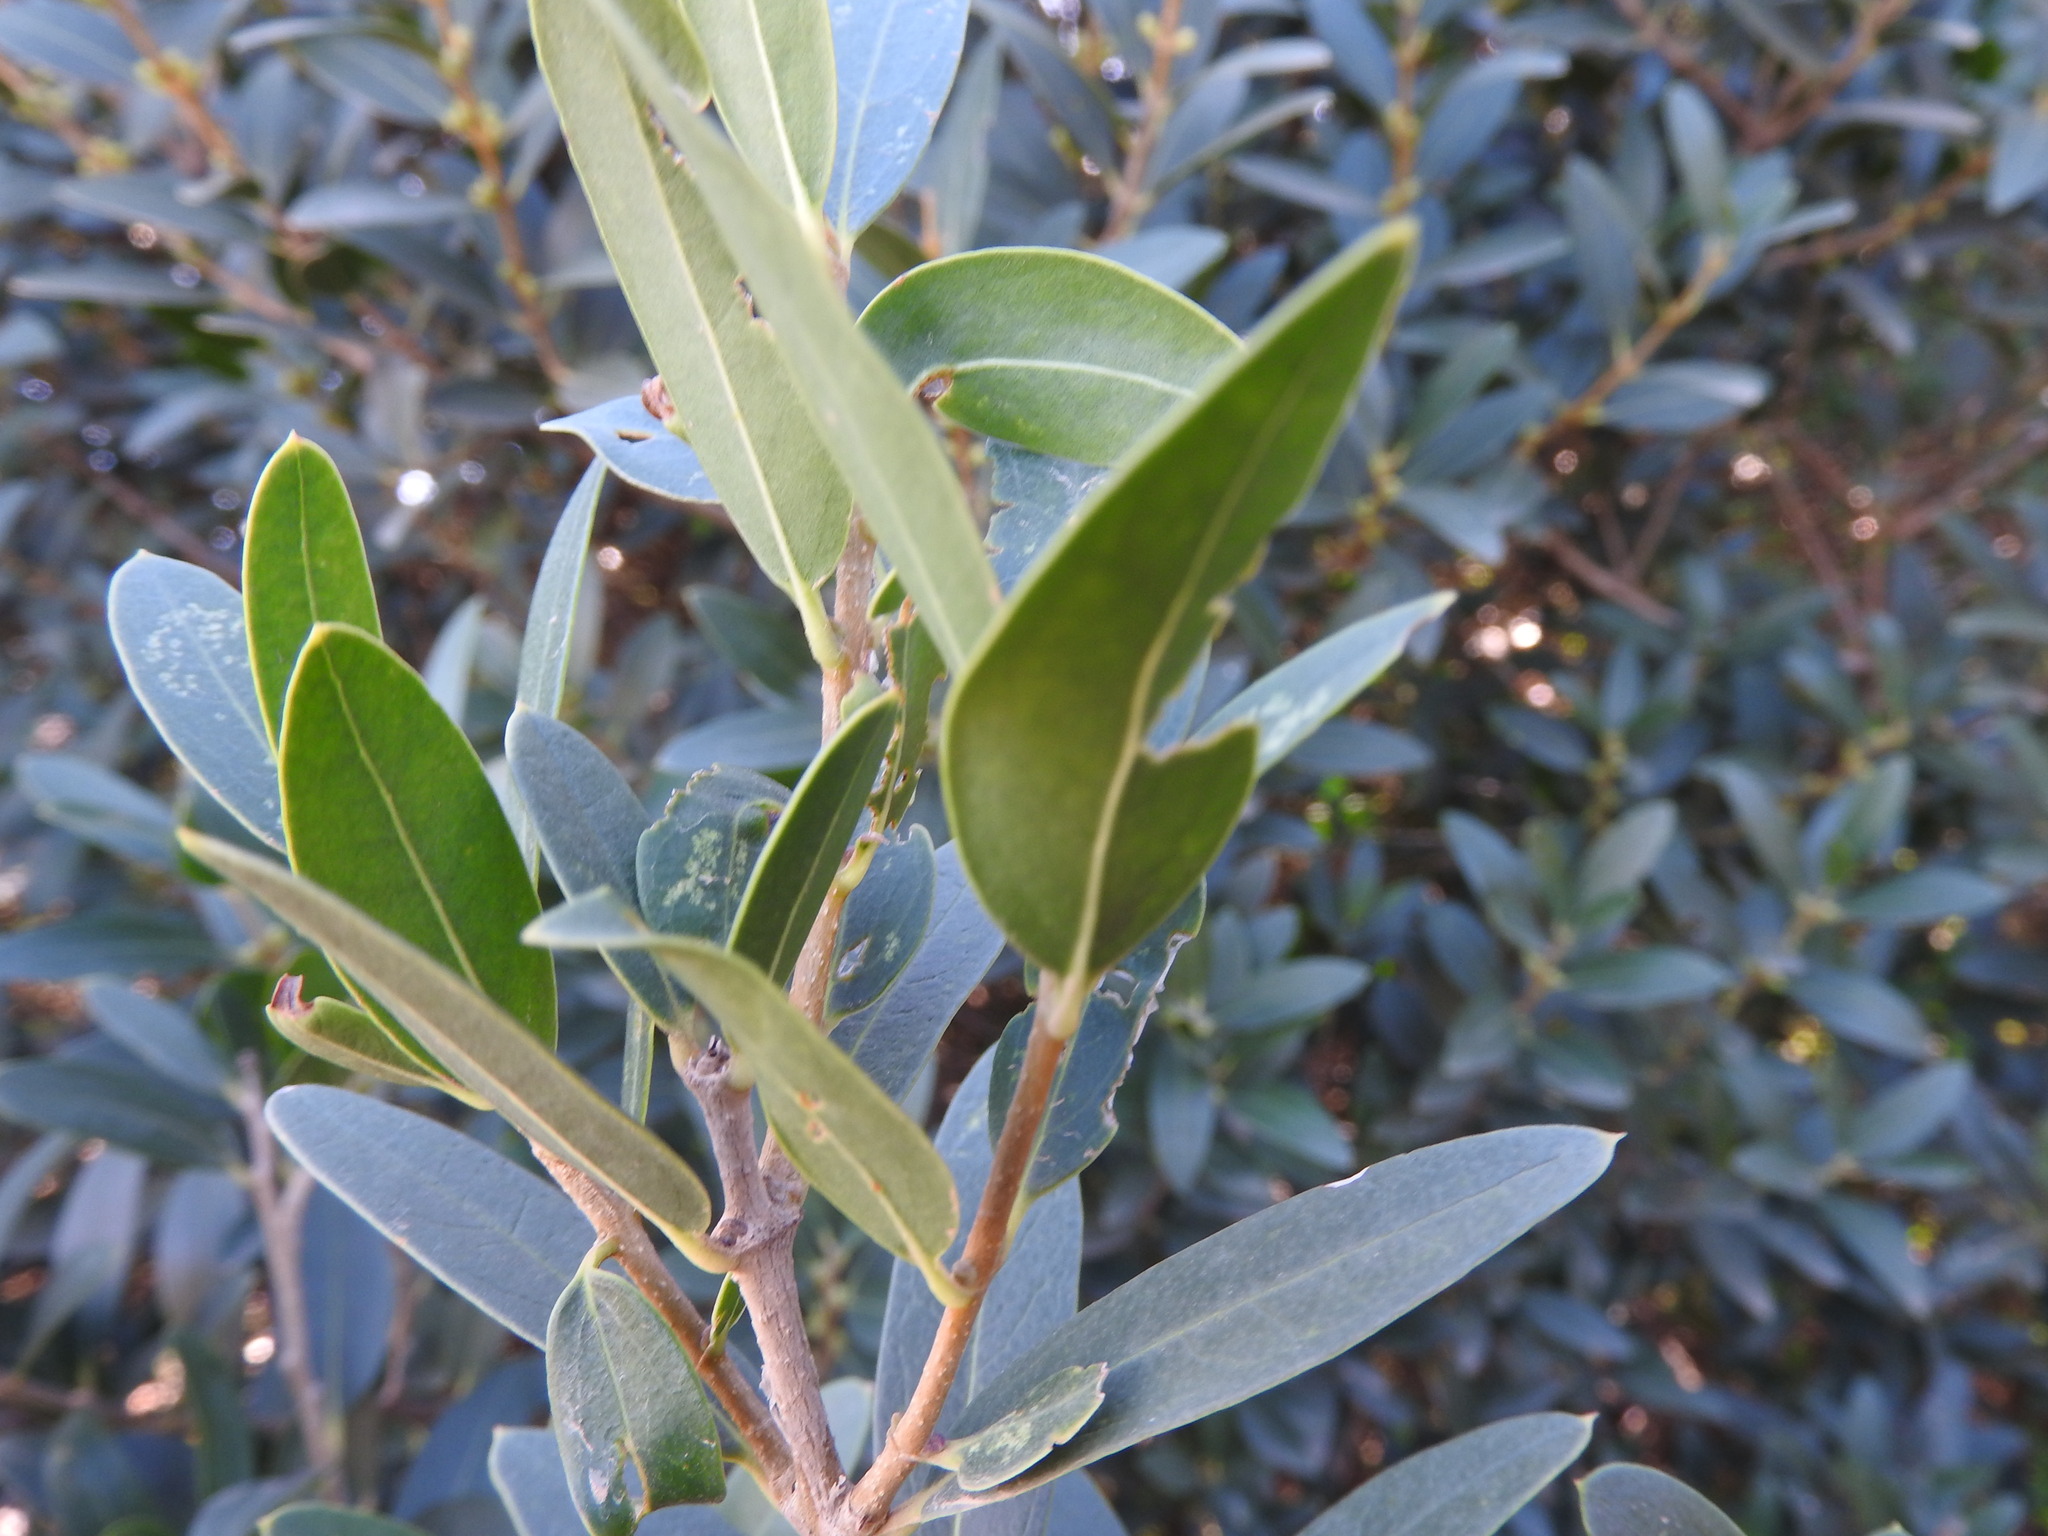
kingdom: Plantae
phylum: Tracheophyta
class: Magnoliopsida
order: Lamiales
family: Oleaceae
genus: Phillyrea
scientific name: Phillyrea latifolia
